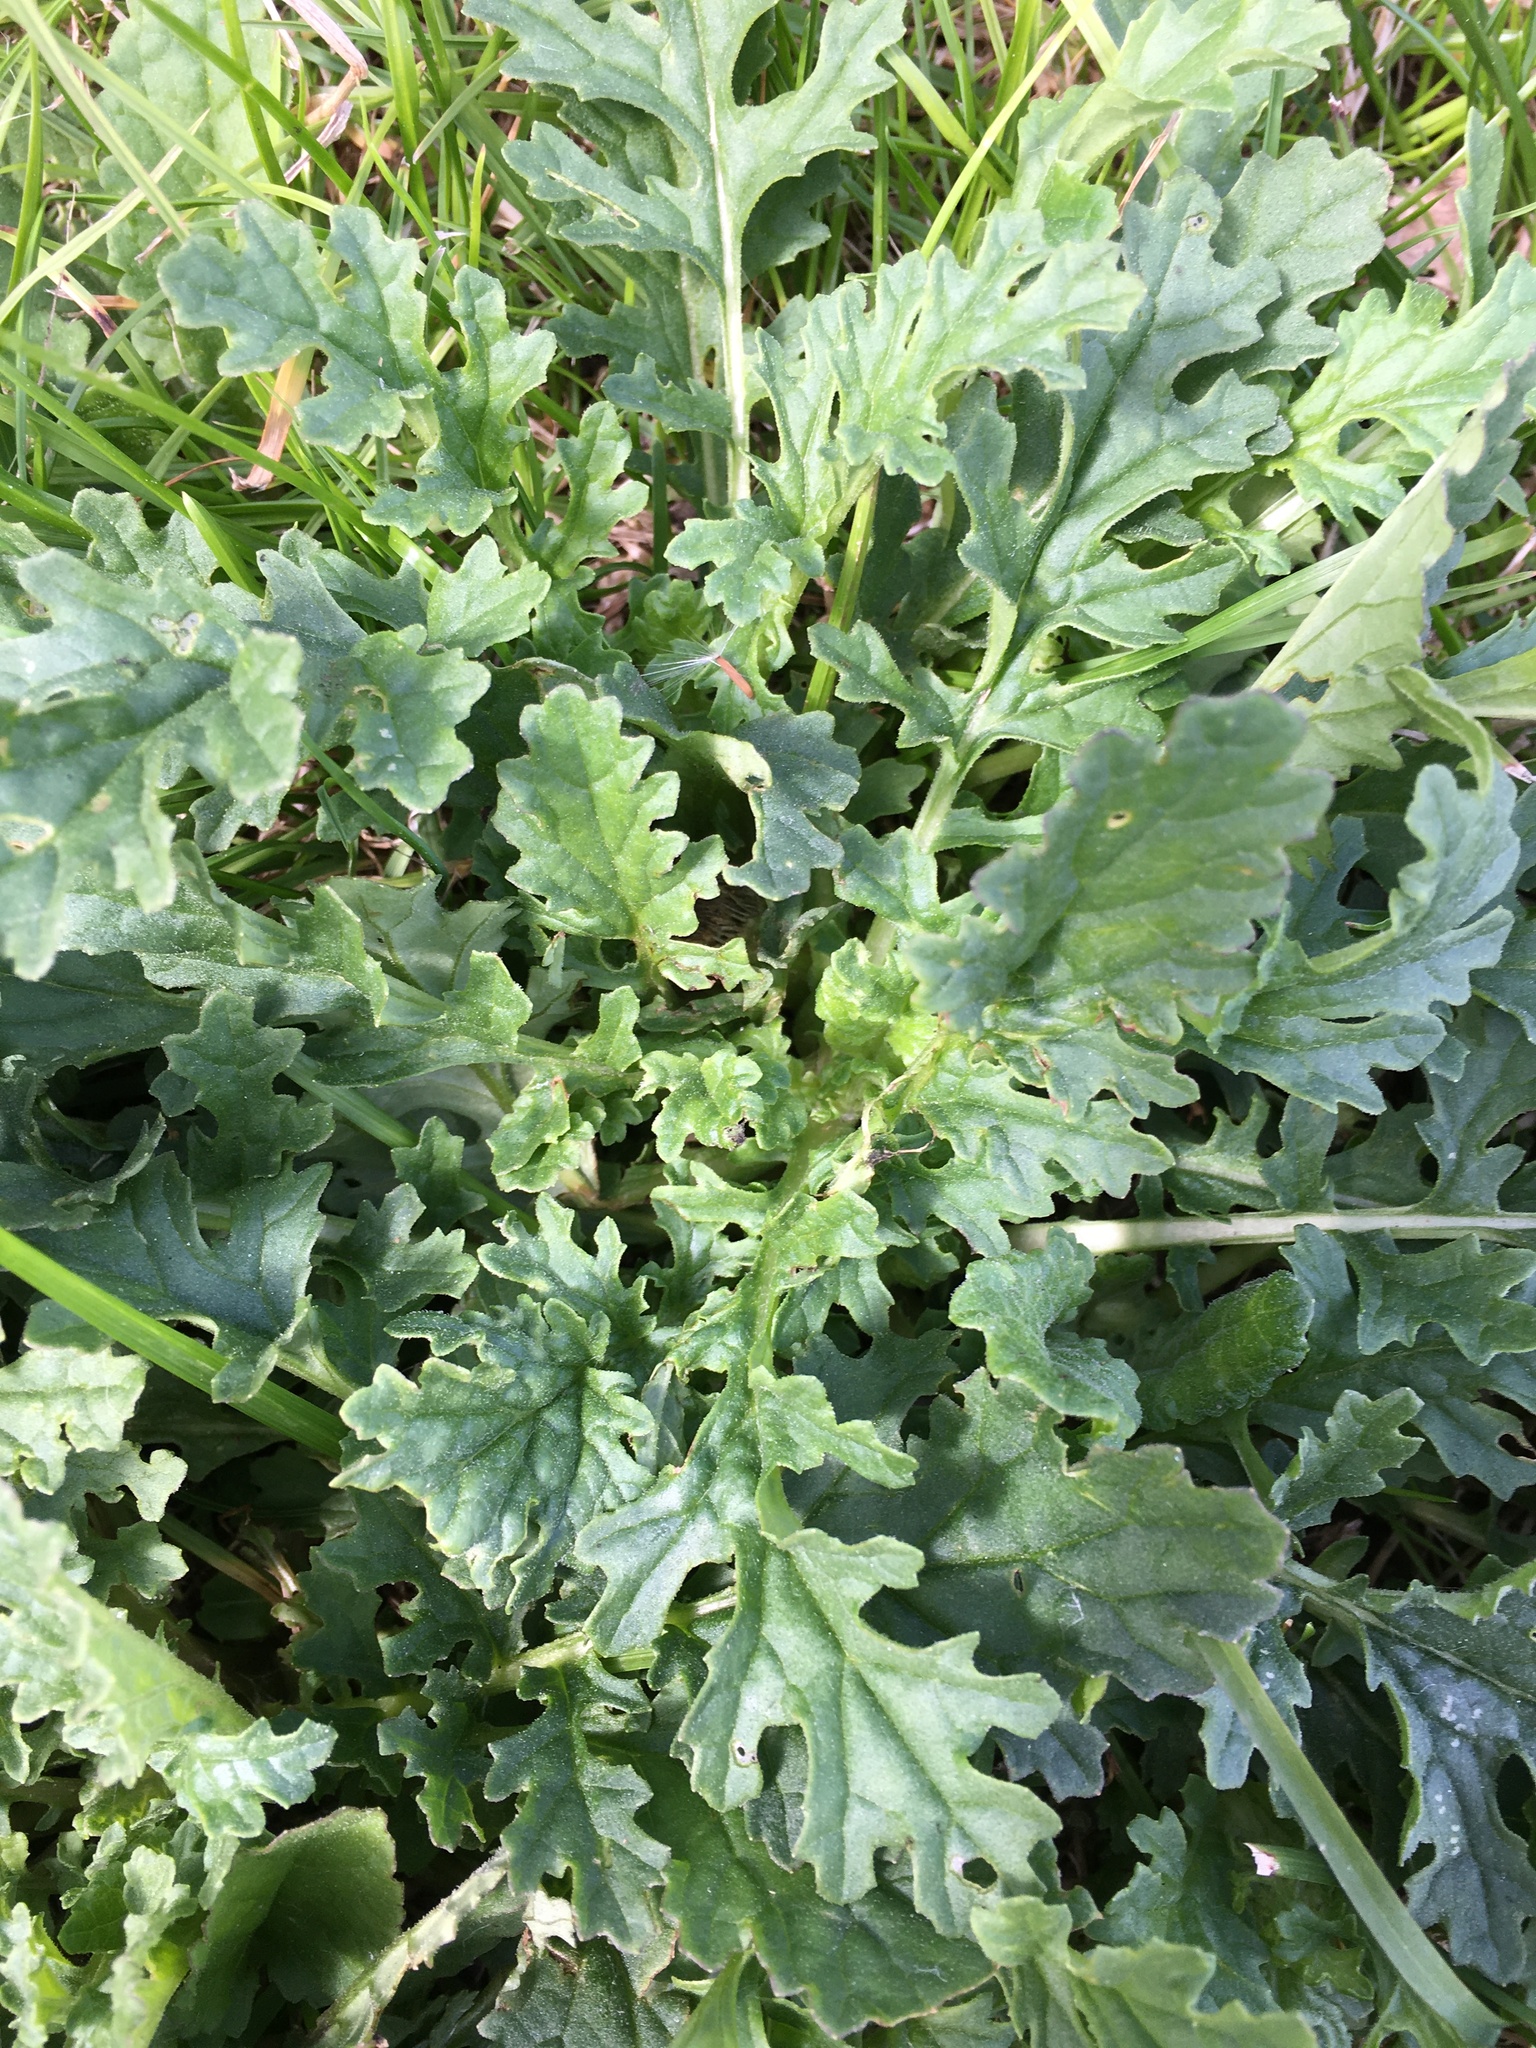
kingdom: Plantae
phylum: Tracheophyta
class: Magnoliopsida
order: Asterales
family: Asteraceae
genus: Jacobaea
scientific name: Jacobaea vulgaris
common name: Stinking willie
